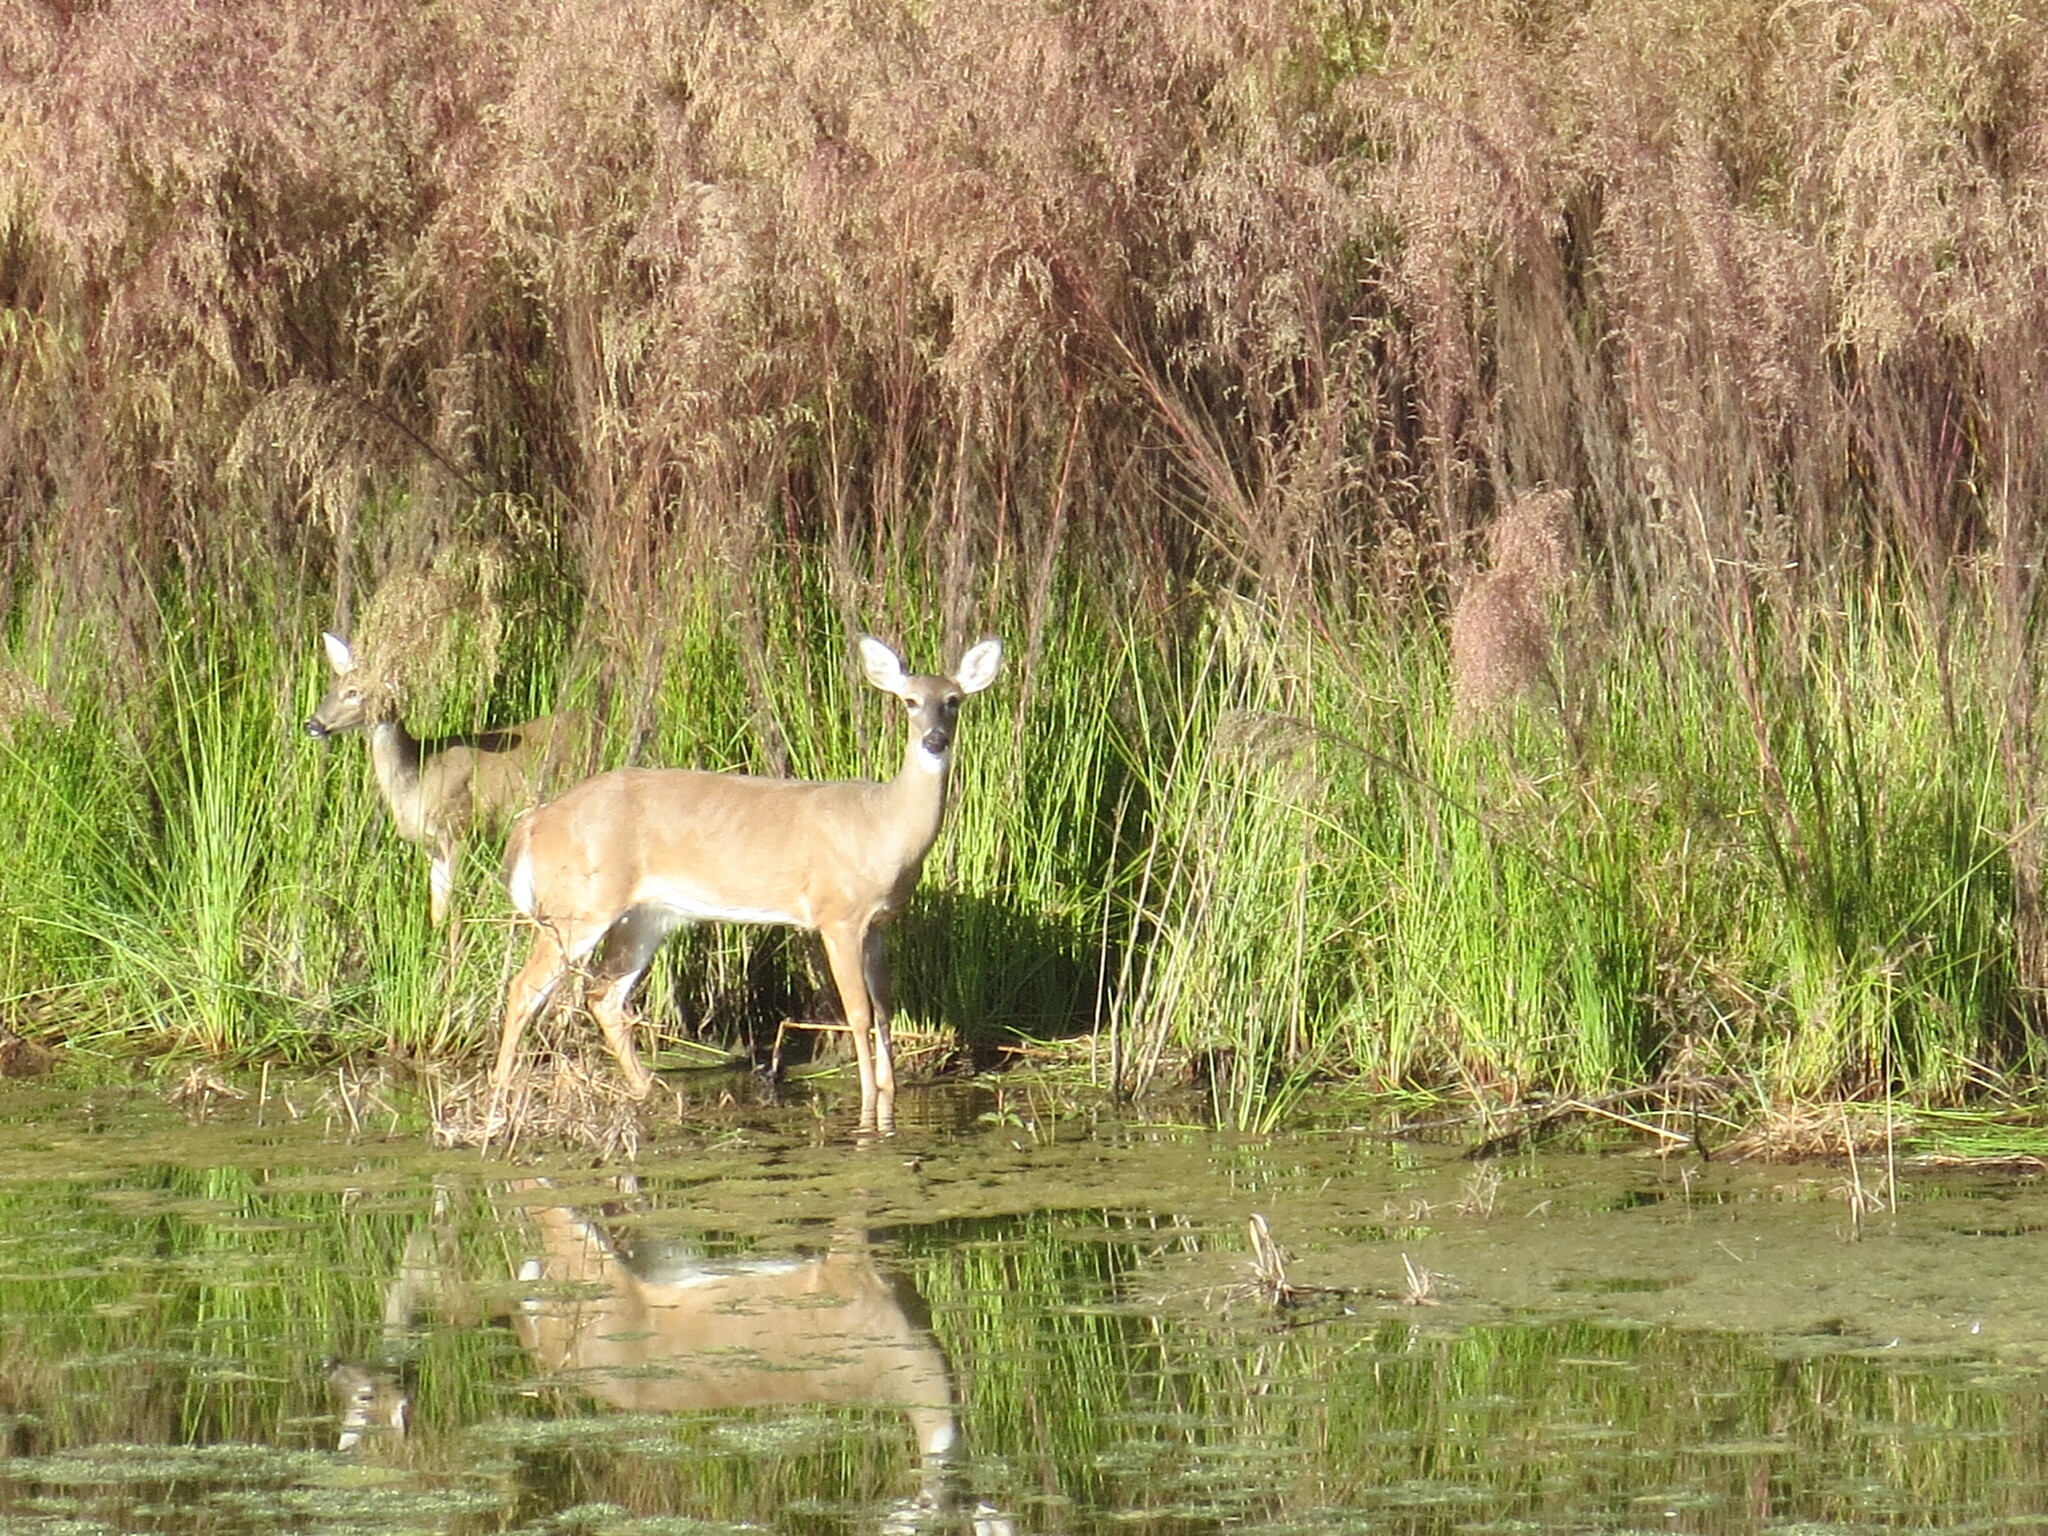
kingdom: Animalia
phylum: Chordata
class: Mammalia
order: Artiodactyla
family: Cervidae
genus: Odocoileus
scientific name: Odocoileus virginianus
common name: White-tailed deer
